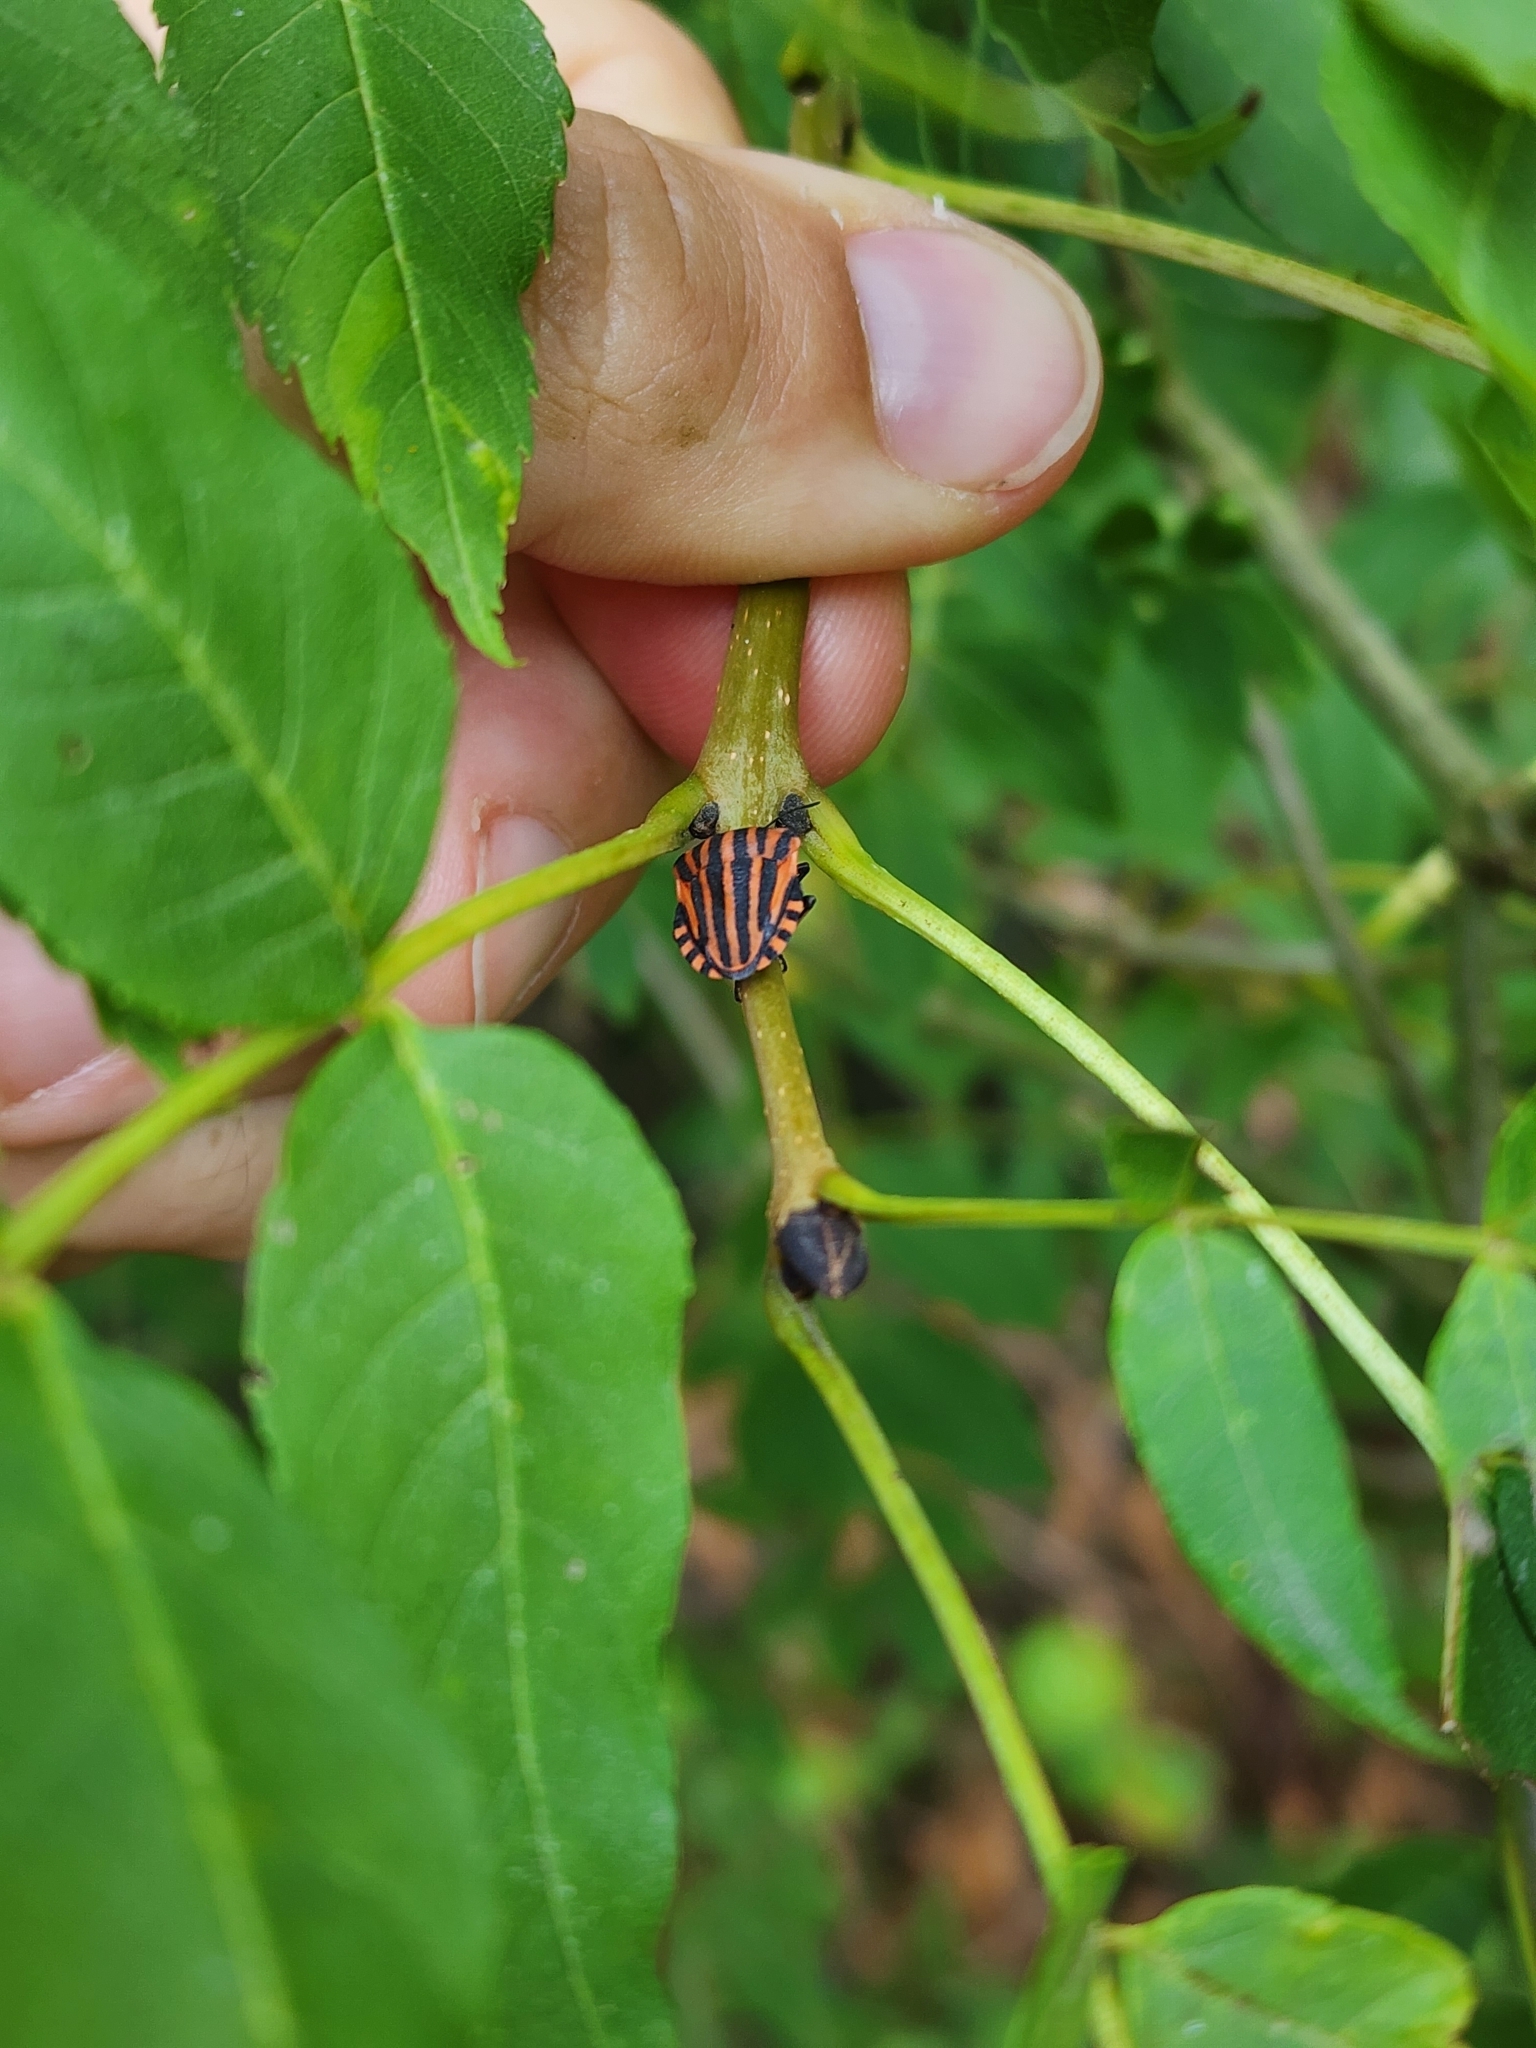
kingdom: Animalia
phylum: Arthropoda
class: Insecta
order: Hemiptera
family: Pentatomidae
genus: Graphosoma
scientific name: Graphosoma italicum
